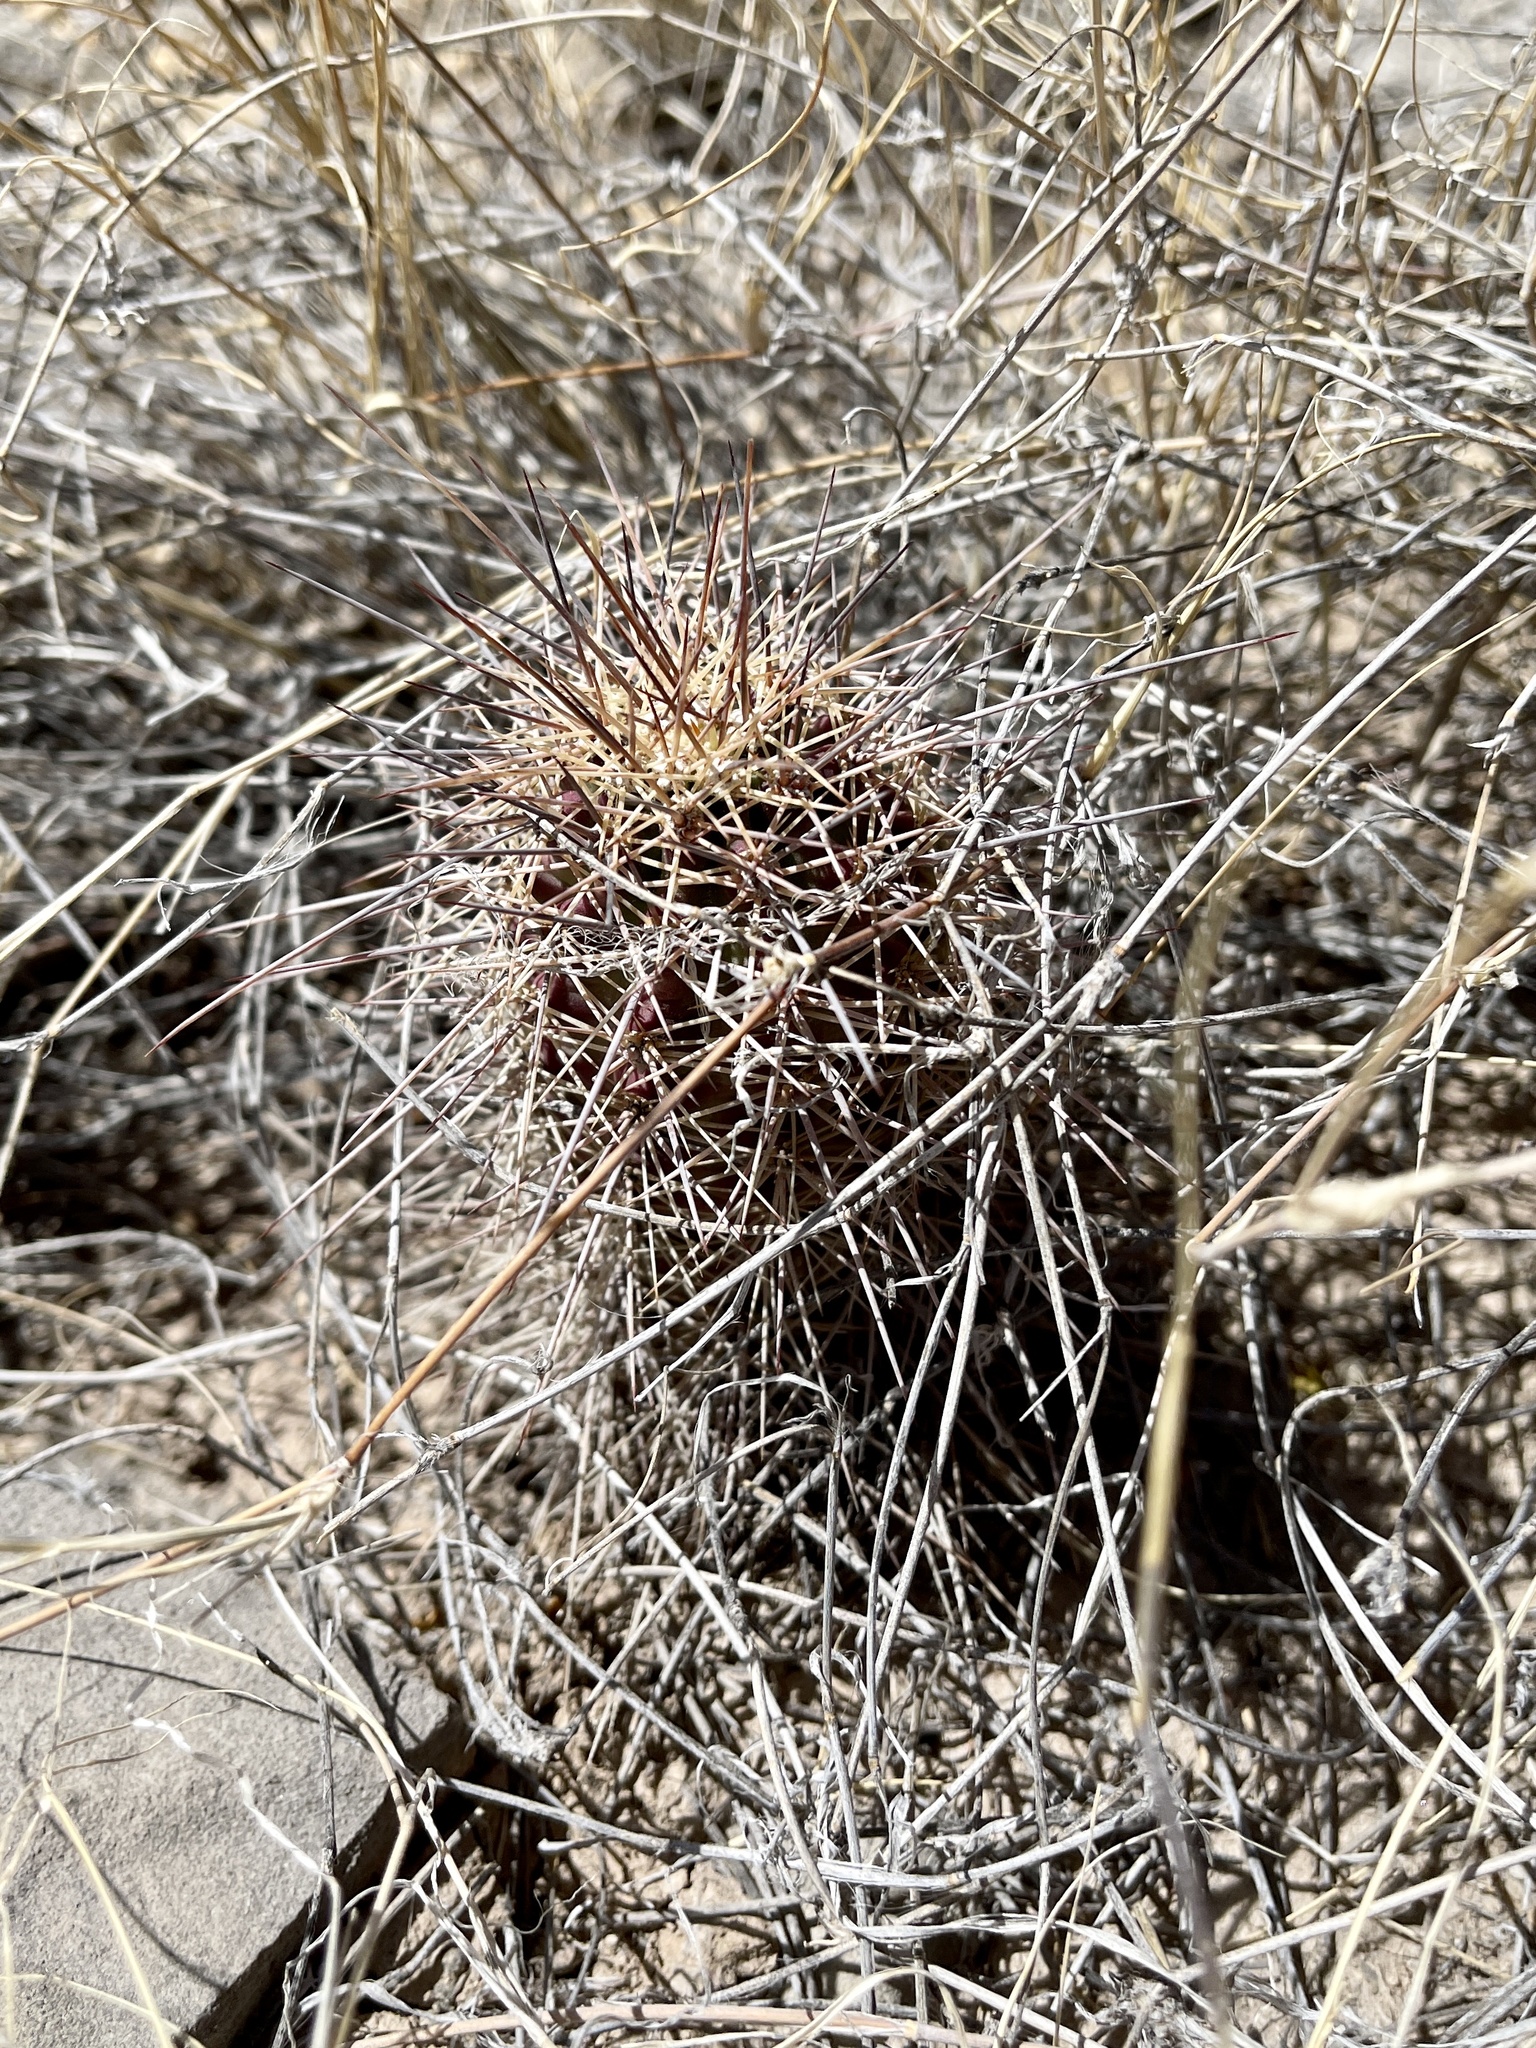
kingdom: Plantae
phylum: Tracheophyta
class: Magnoliopsida
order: Caryophyllales
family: Cactaceae
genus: Echinocereus
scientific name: Echinocereus coccineus
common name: Scarlet hedgehog cactus
